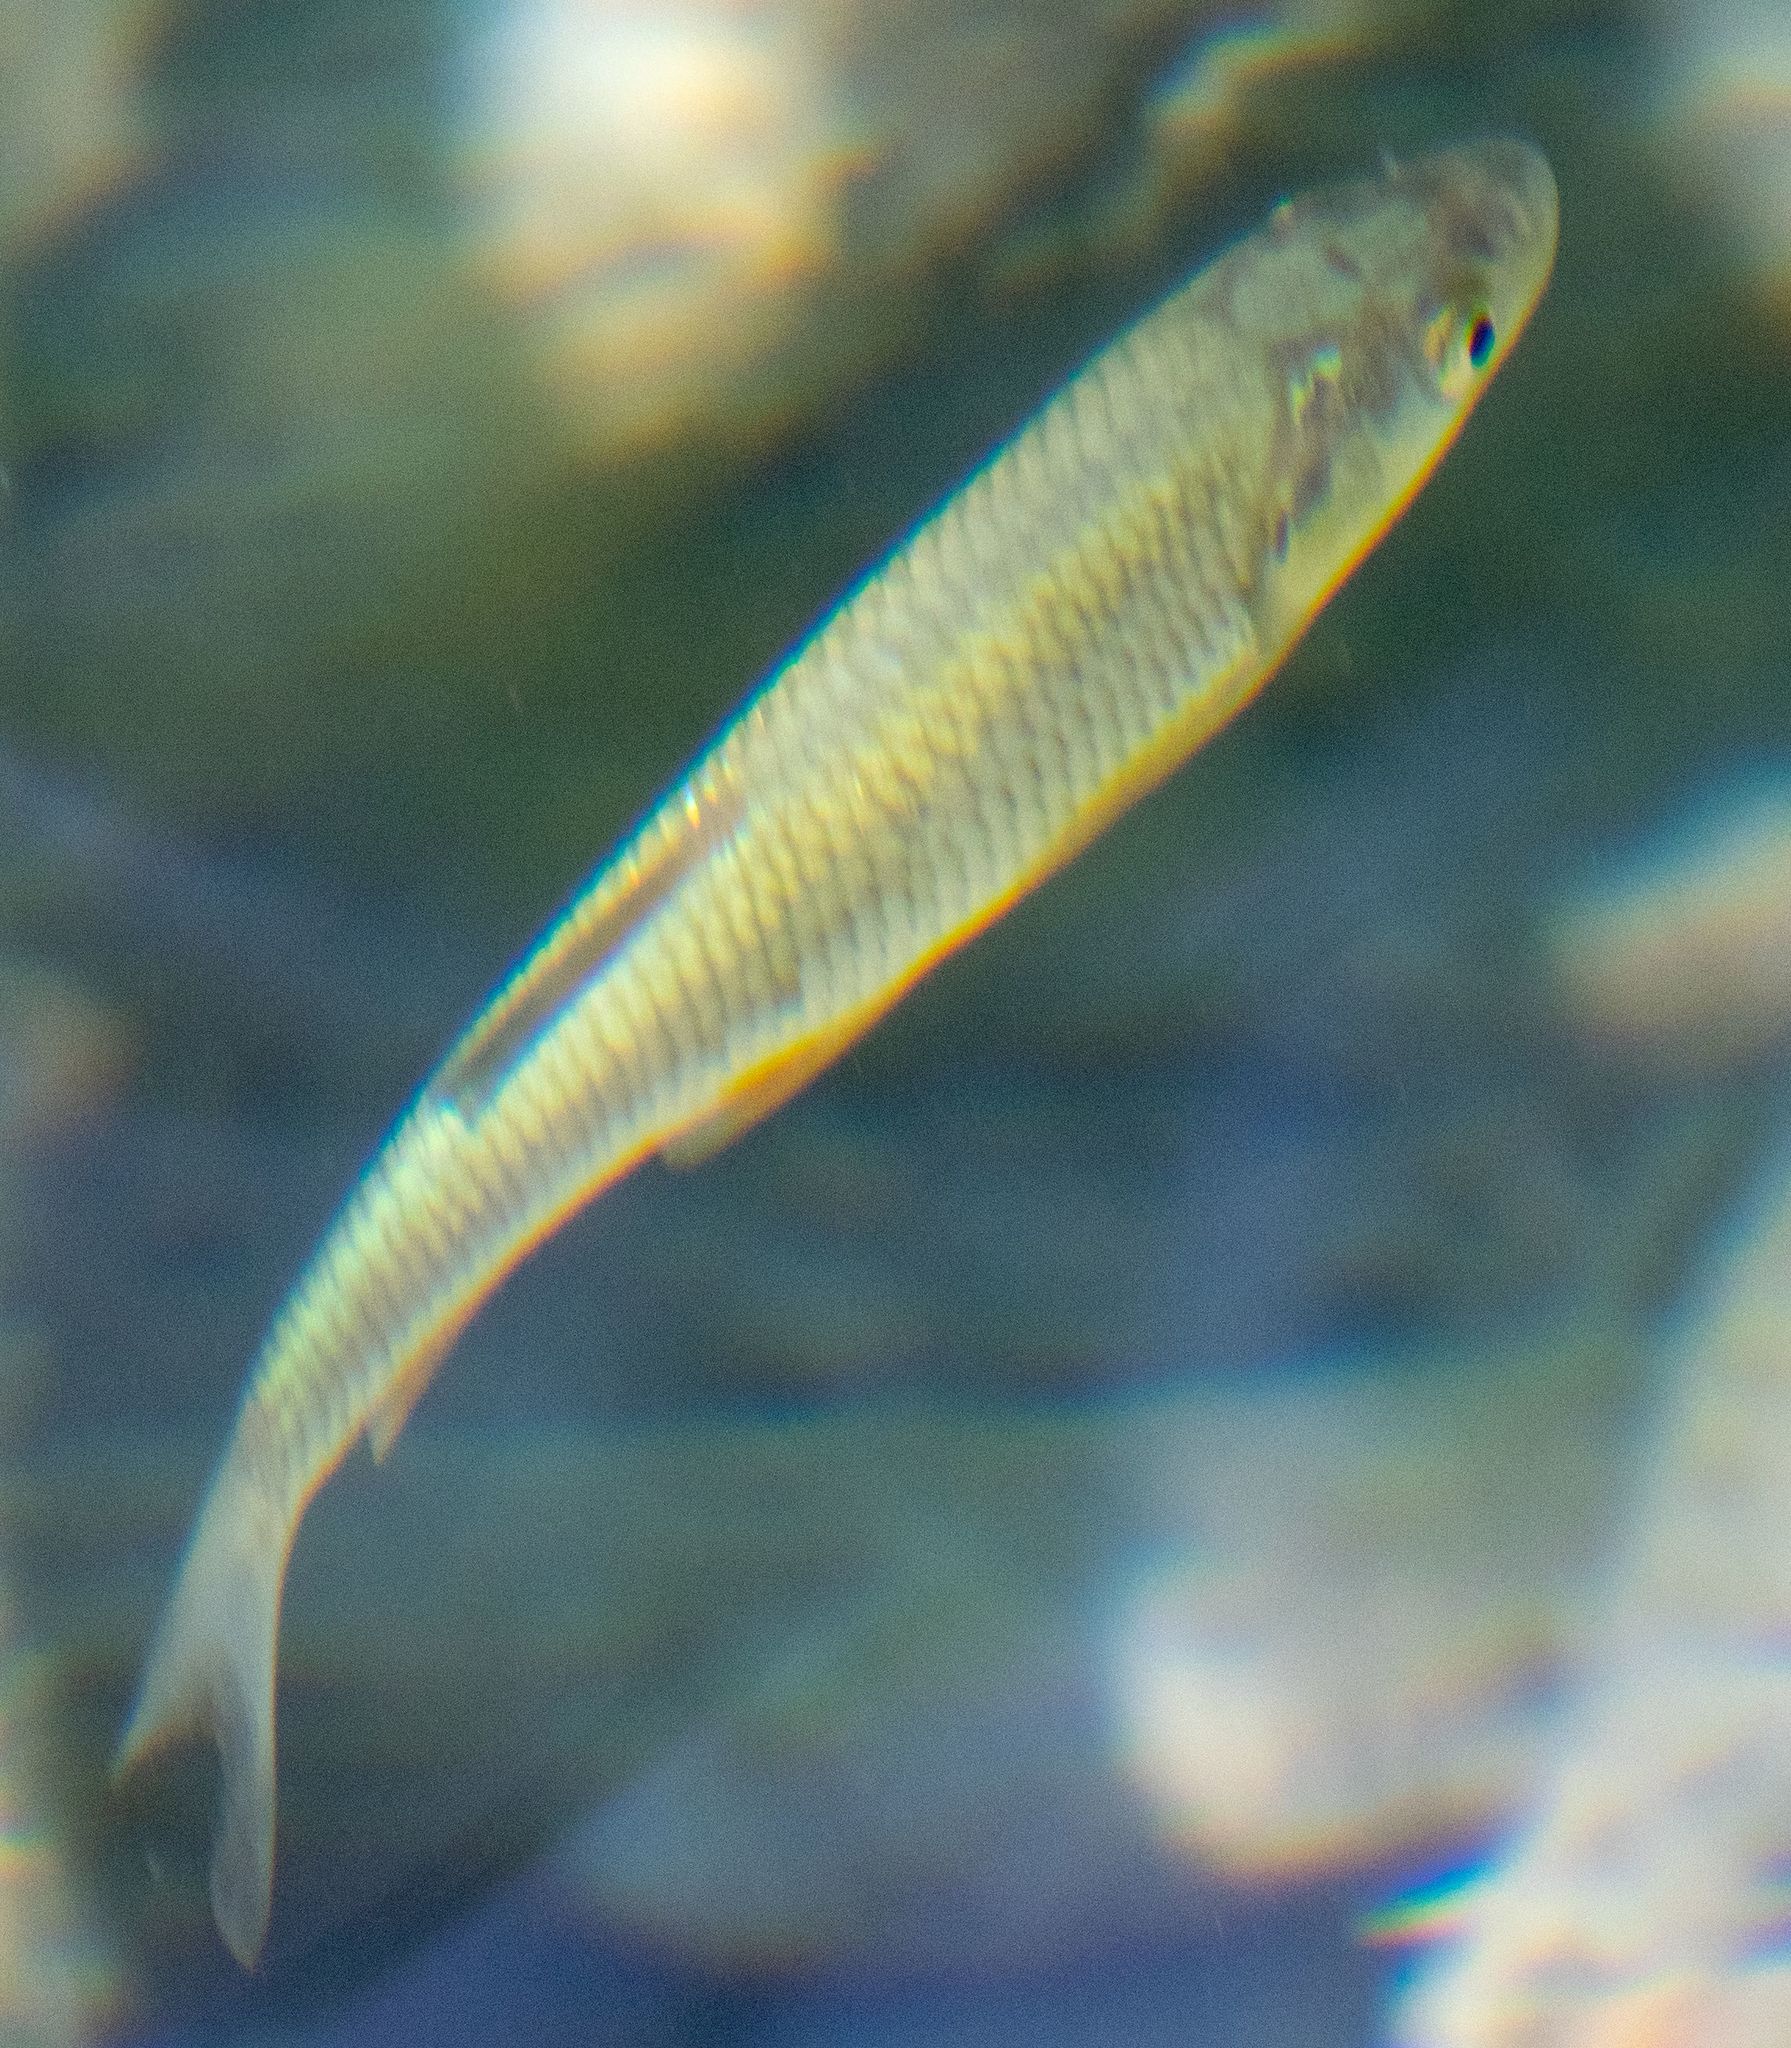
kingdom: Animalia
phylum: Chordata
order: Cypriniformes
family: Cyprinidae
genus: Squalius
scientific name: Squalius cephalus
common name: Chub
